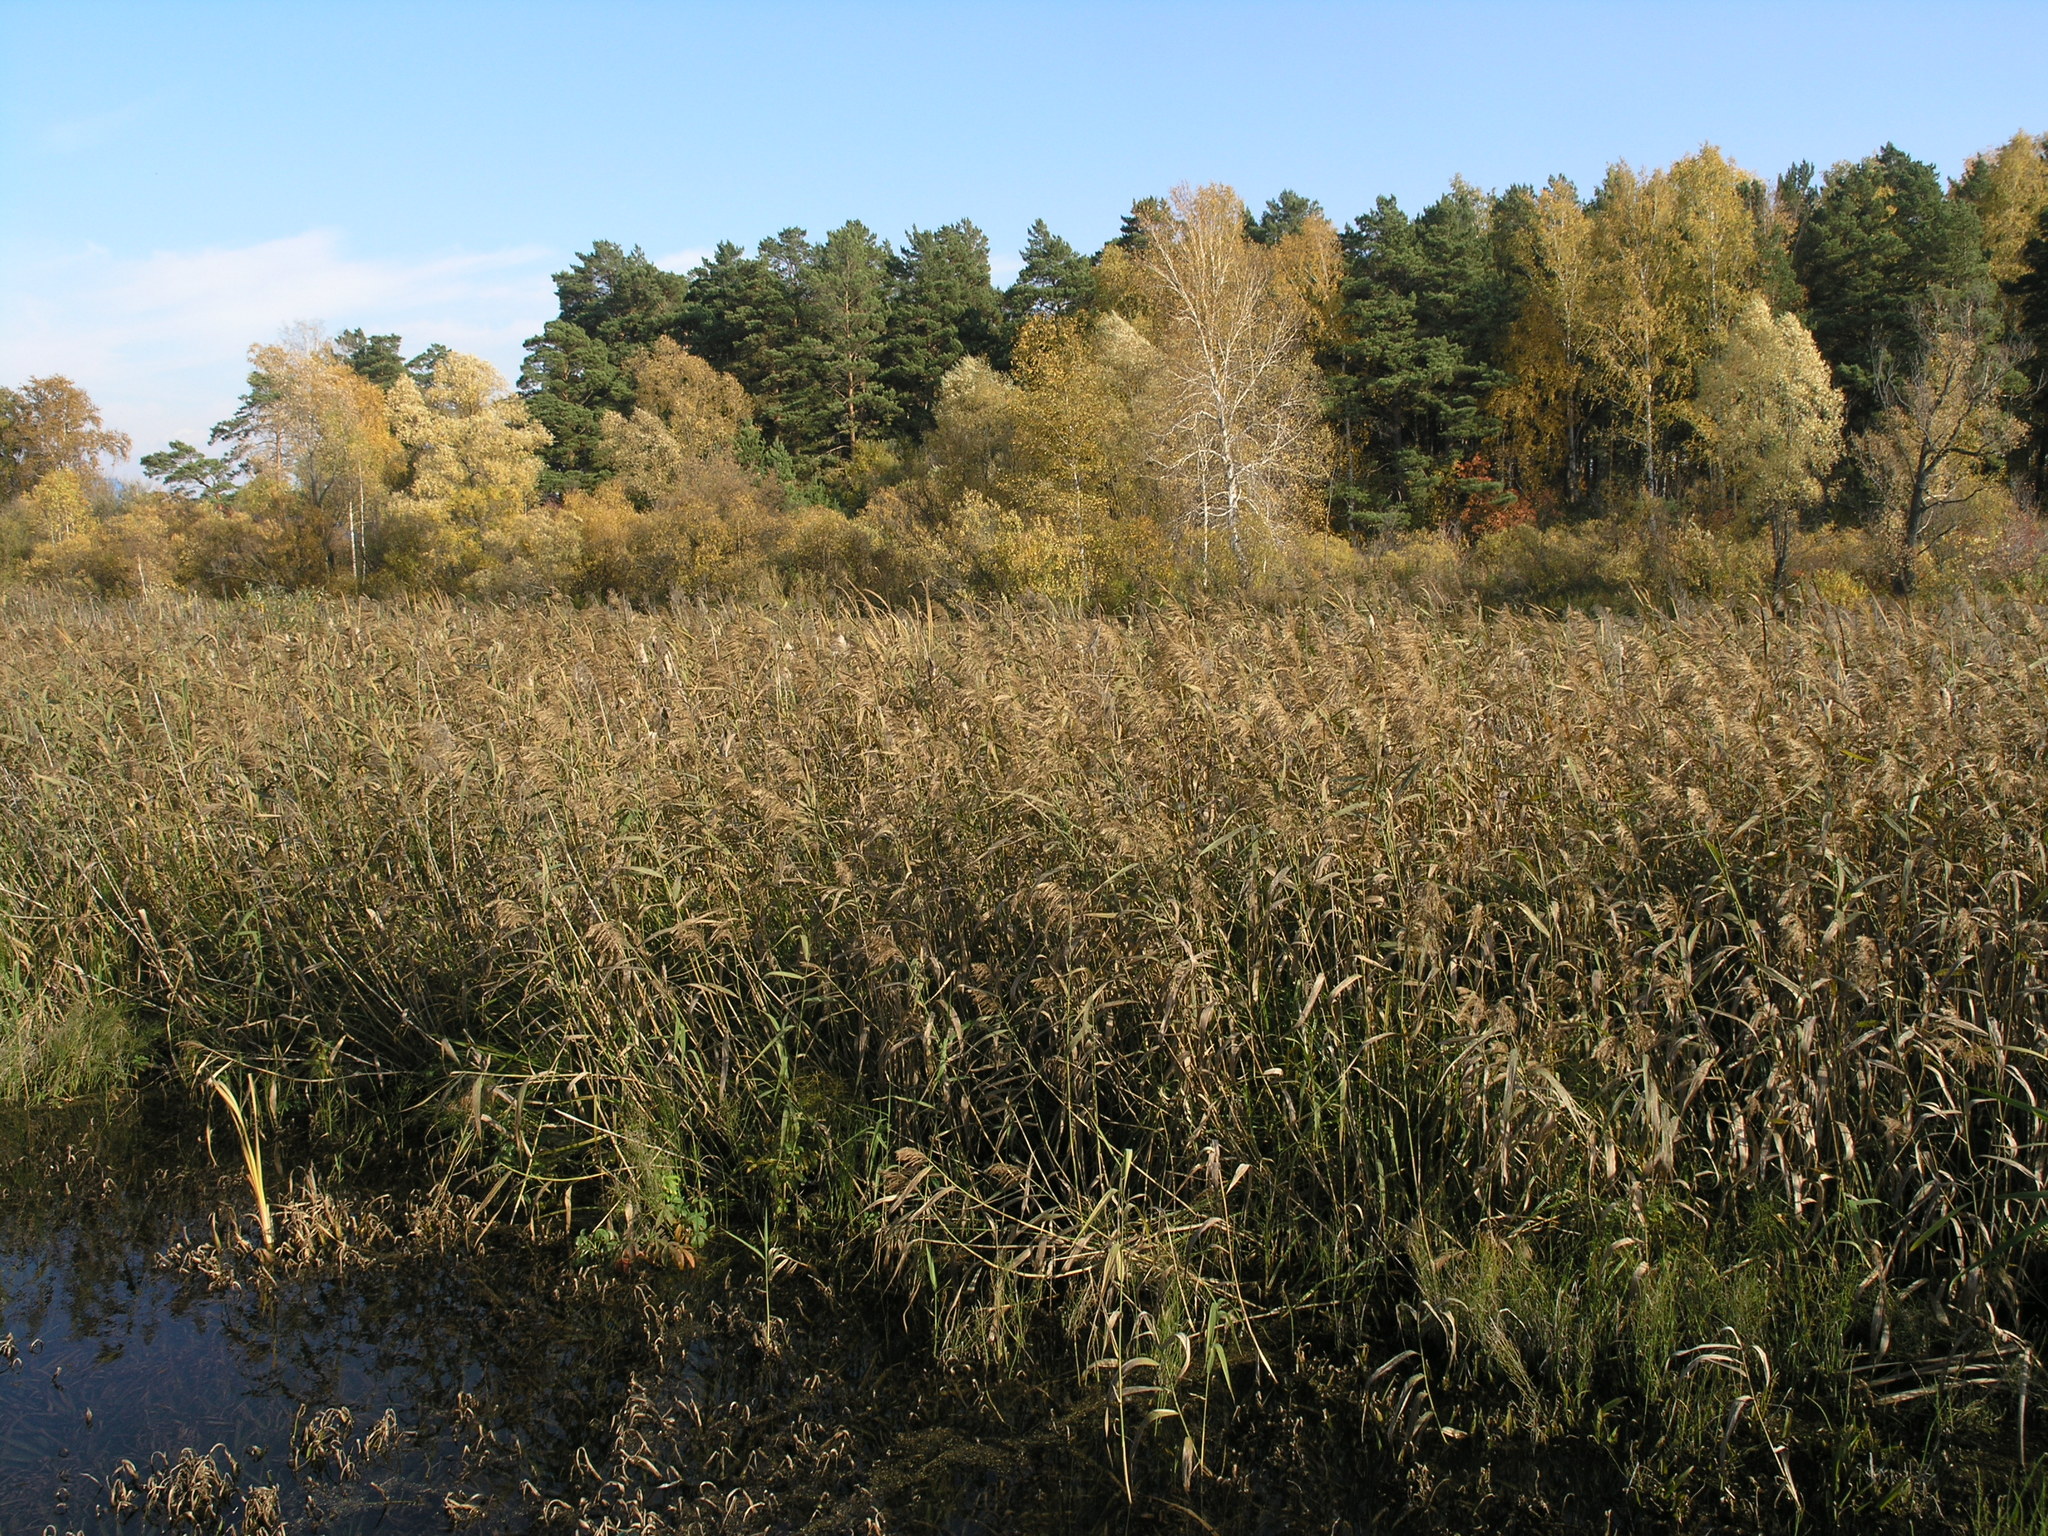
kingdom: Plantae
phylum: Tracheophyta
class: Liliopsida
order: Poales
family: Poaceae
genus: Phragmites
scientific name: Phragmites australis
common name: Common reed
